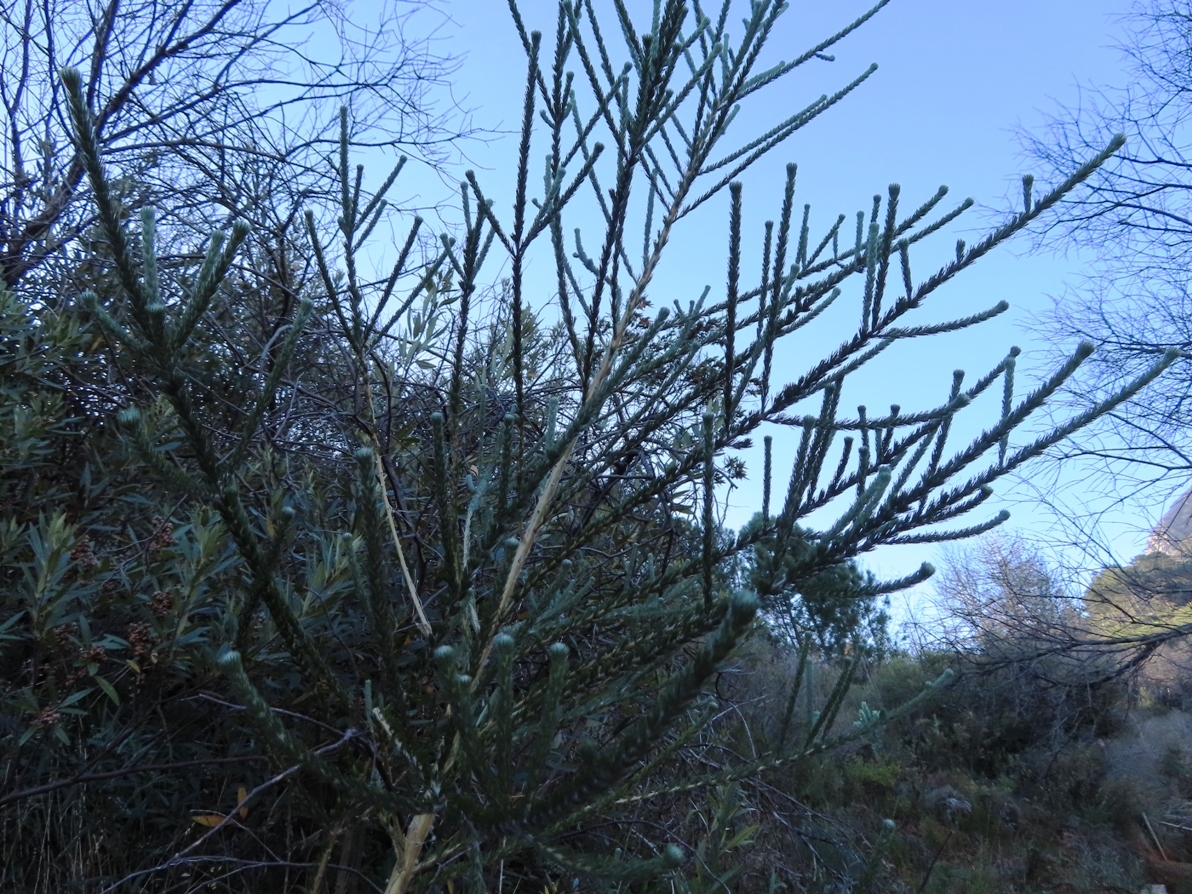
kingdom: Plantae
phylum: Tracheophyta
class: Magnoliopsida
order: Fabales
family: Fabaceae
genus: Aspalathus
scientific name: Aspalathus cephalotes
